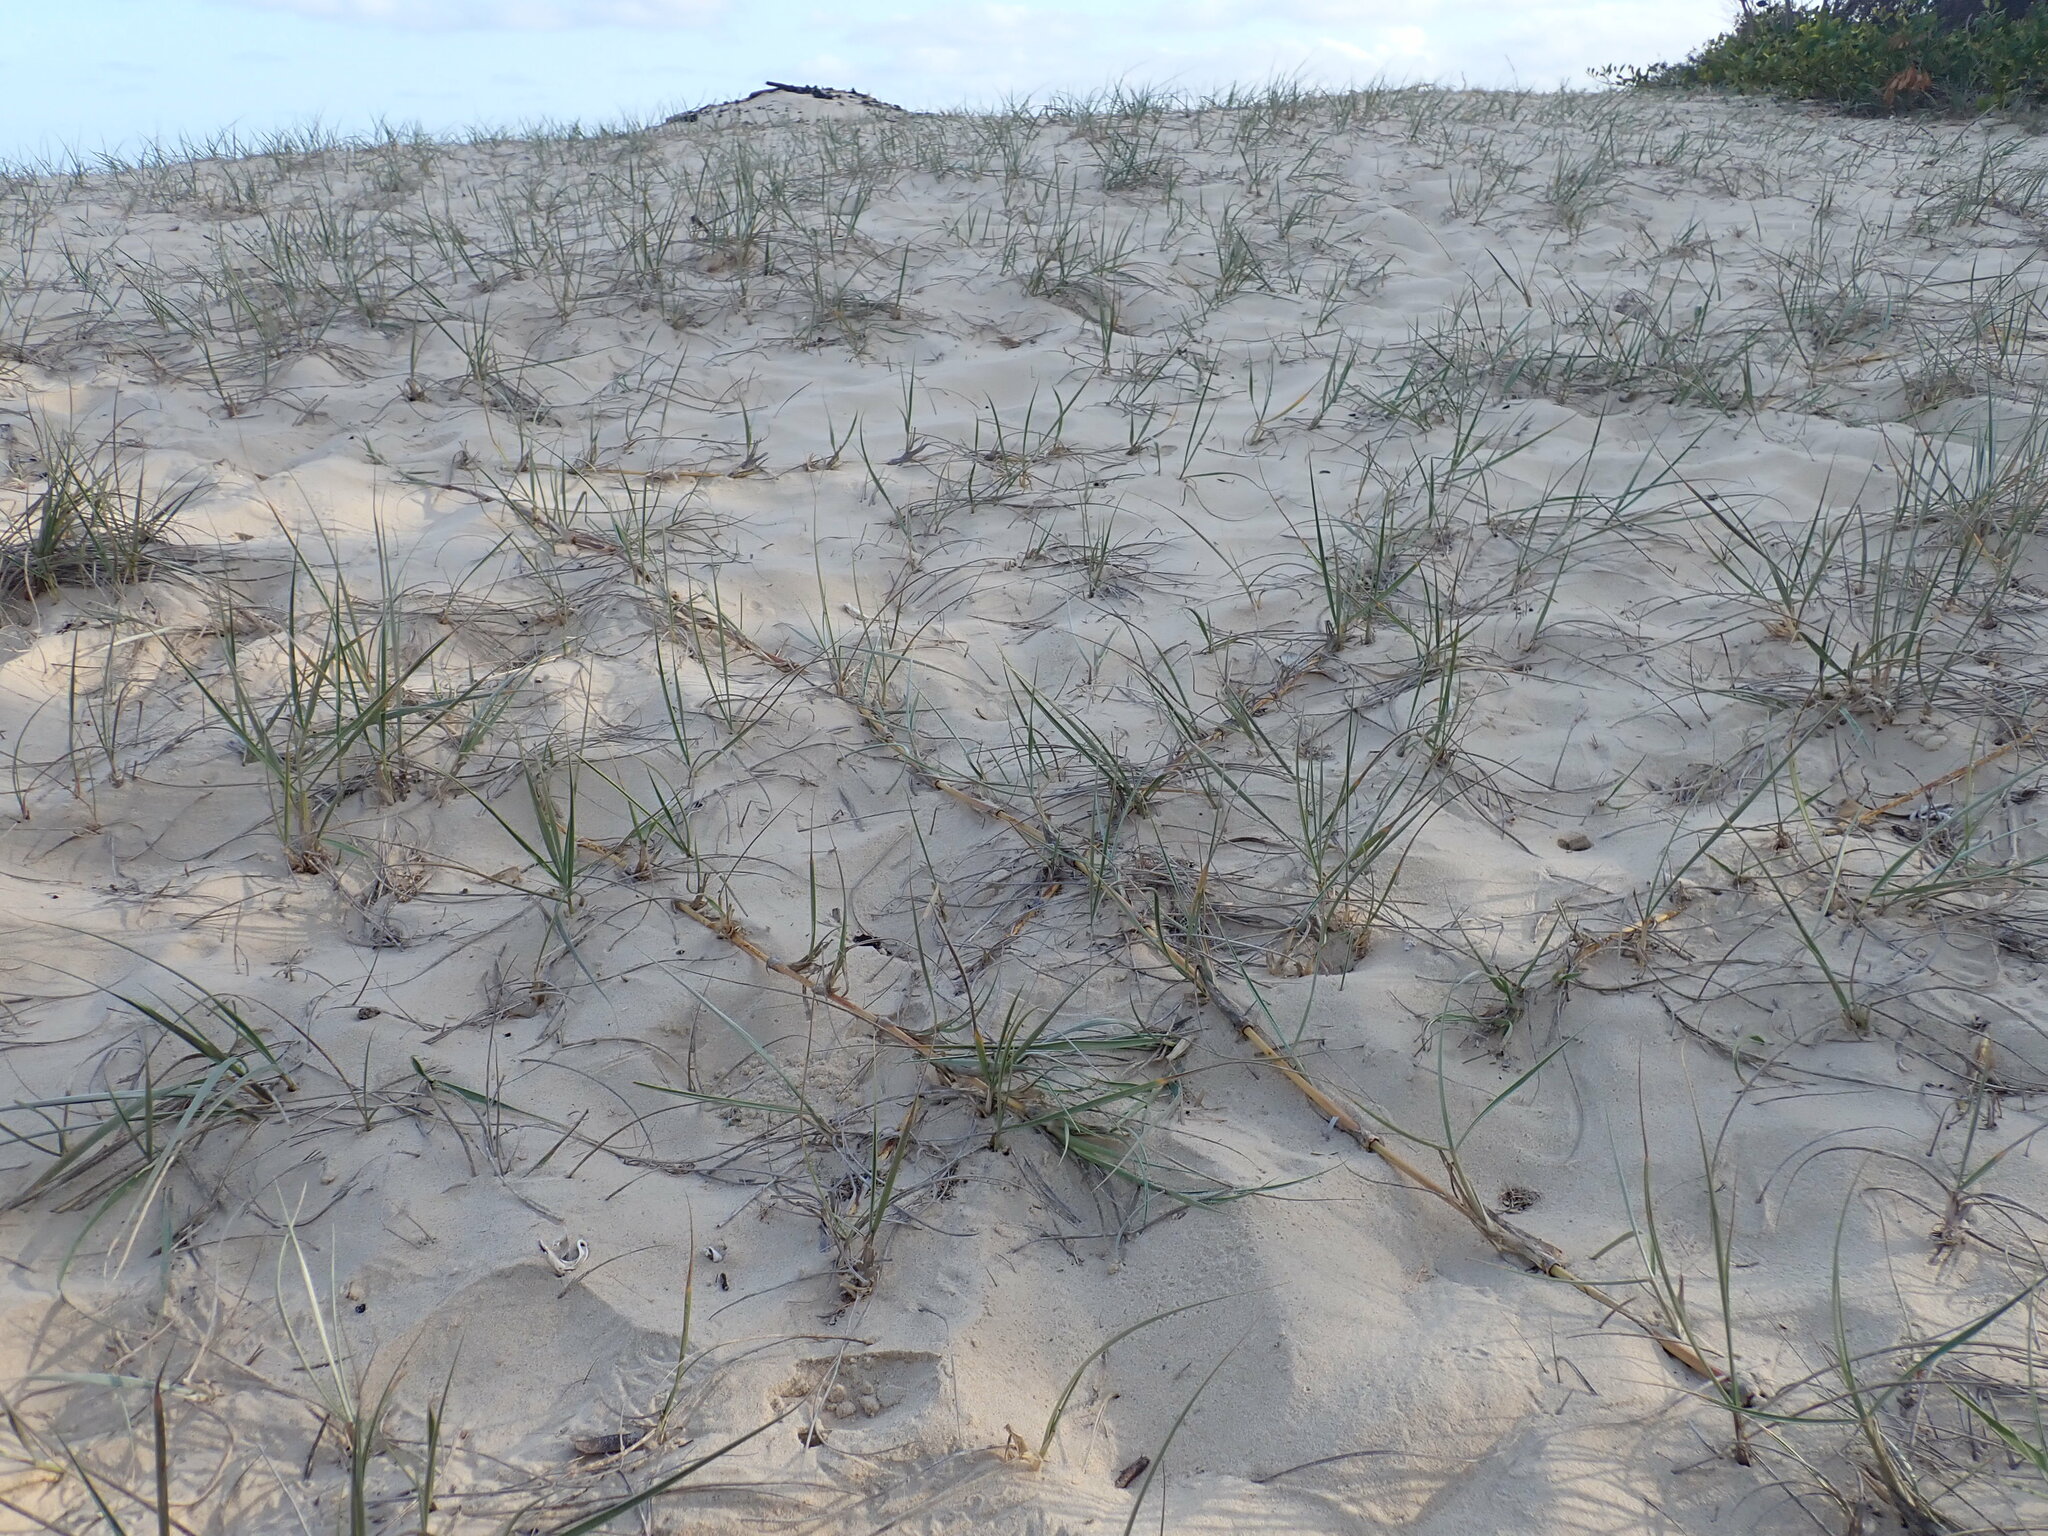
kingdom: Plantae
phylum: Tracheophyta
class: Liliopsida
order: Poales
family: Poaceae
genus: Spinifex
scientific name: Spinifex sericeus
